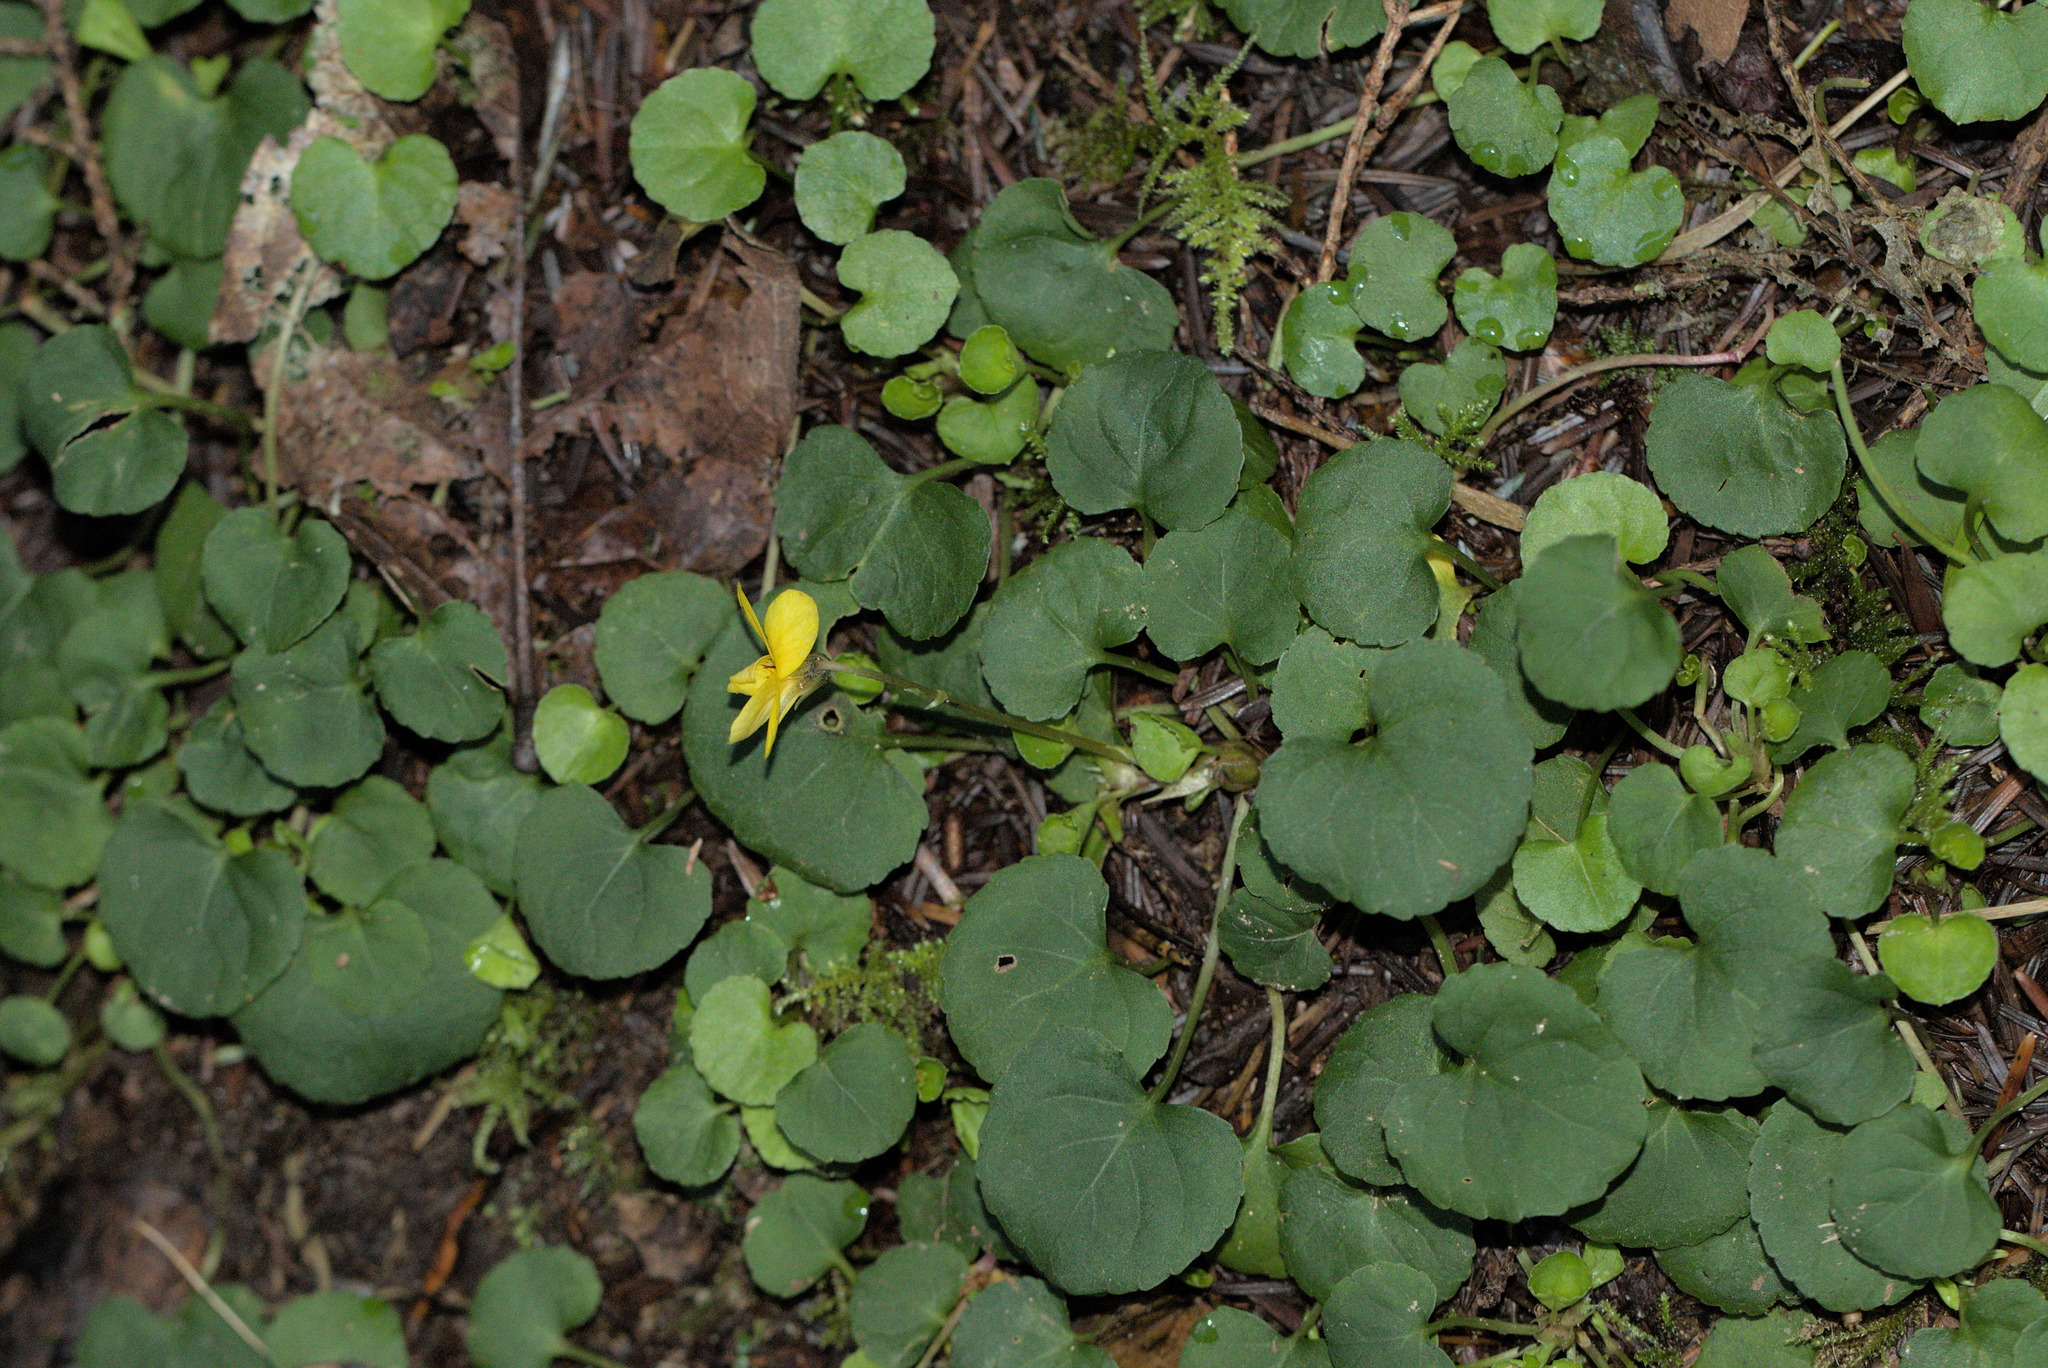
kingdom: Plantae
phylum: Tracheophyta
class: Magnoliopsida
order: Malpighiales
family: Violaceae
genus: Viola
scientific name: Viola sempervirens
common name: Evergreen violet
